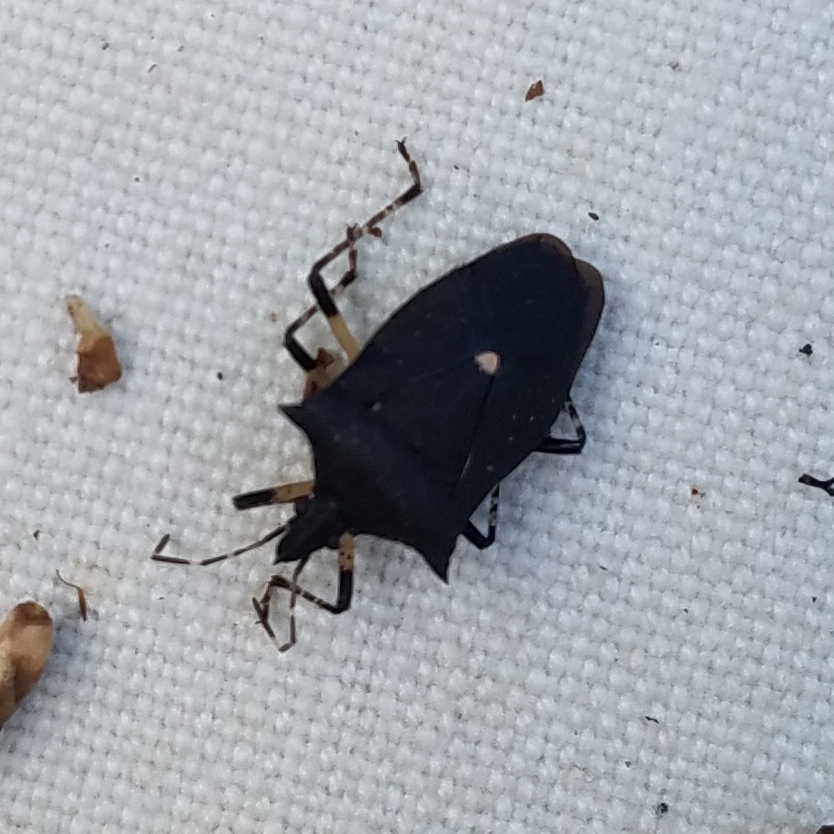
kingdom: Animalia
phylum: Arthropoda
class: Insecta
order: Hemiptera
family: Pentatomidae
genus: Proxys
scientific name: Proxys punctulatus
